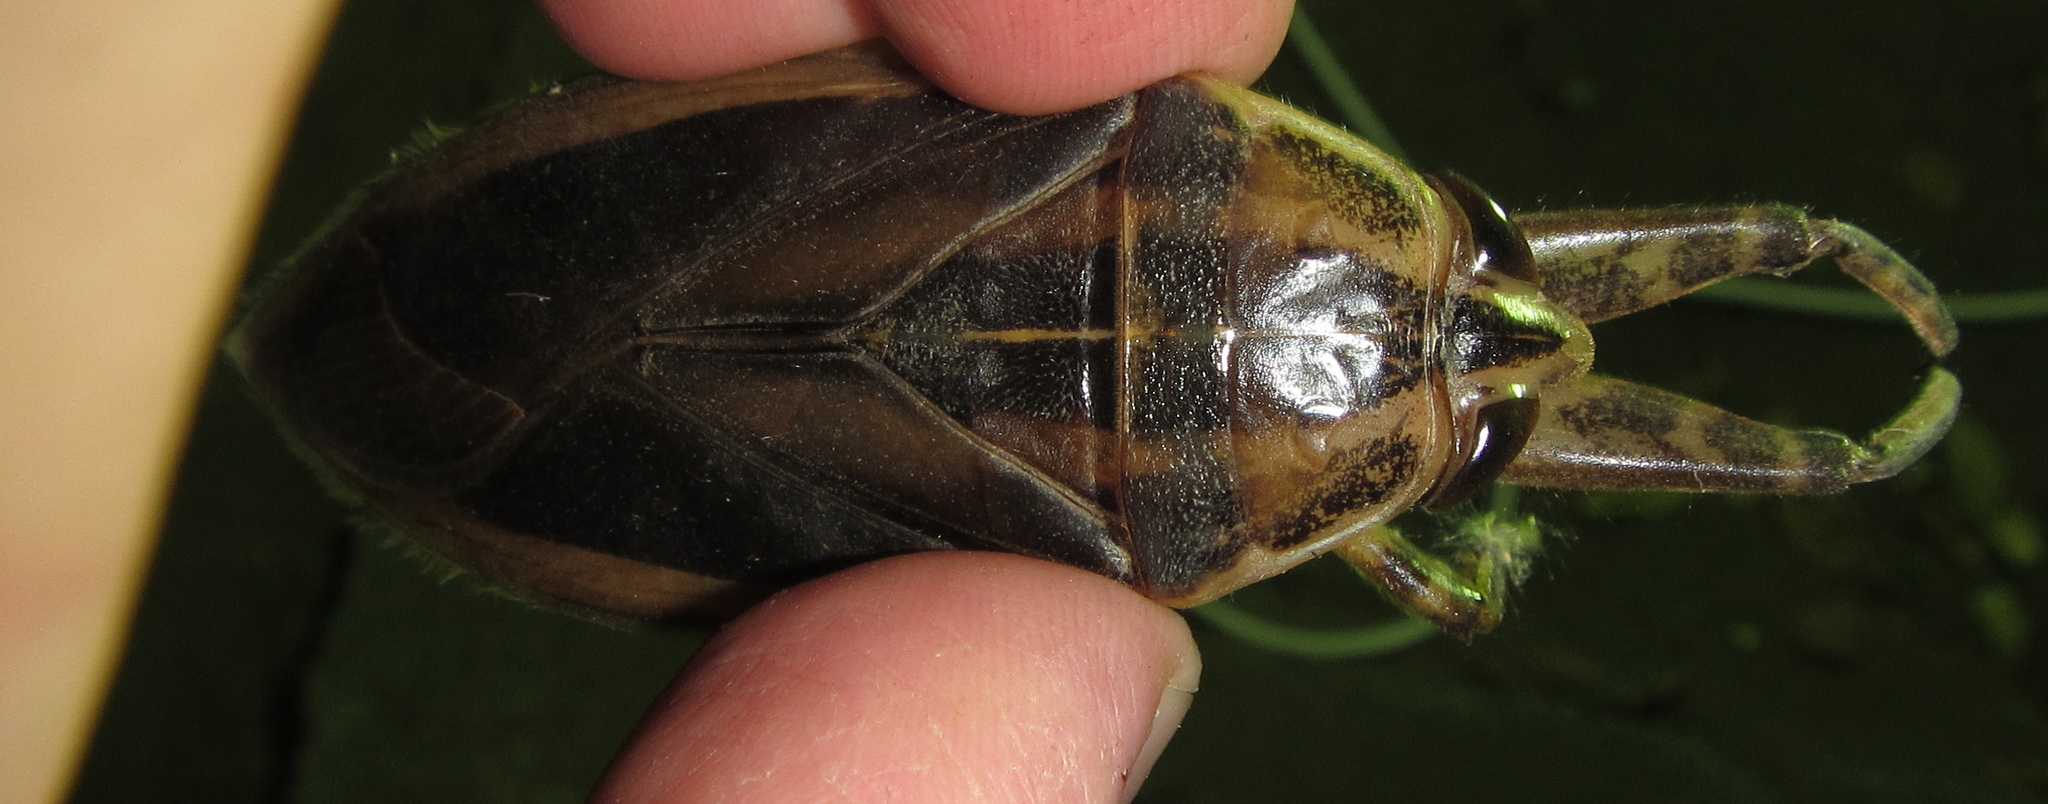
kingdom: Animalia
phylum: Arthropoda
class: Insecta
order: Hemiptera
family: Belostomatidae
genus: Hydrocyrius
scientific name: Hydrocyrius colombiae
